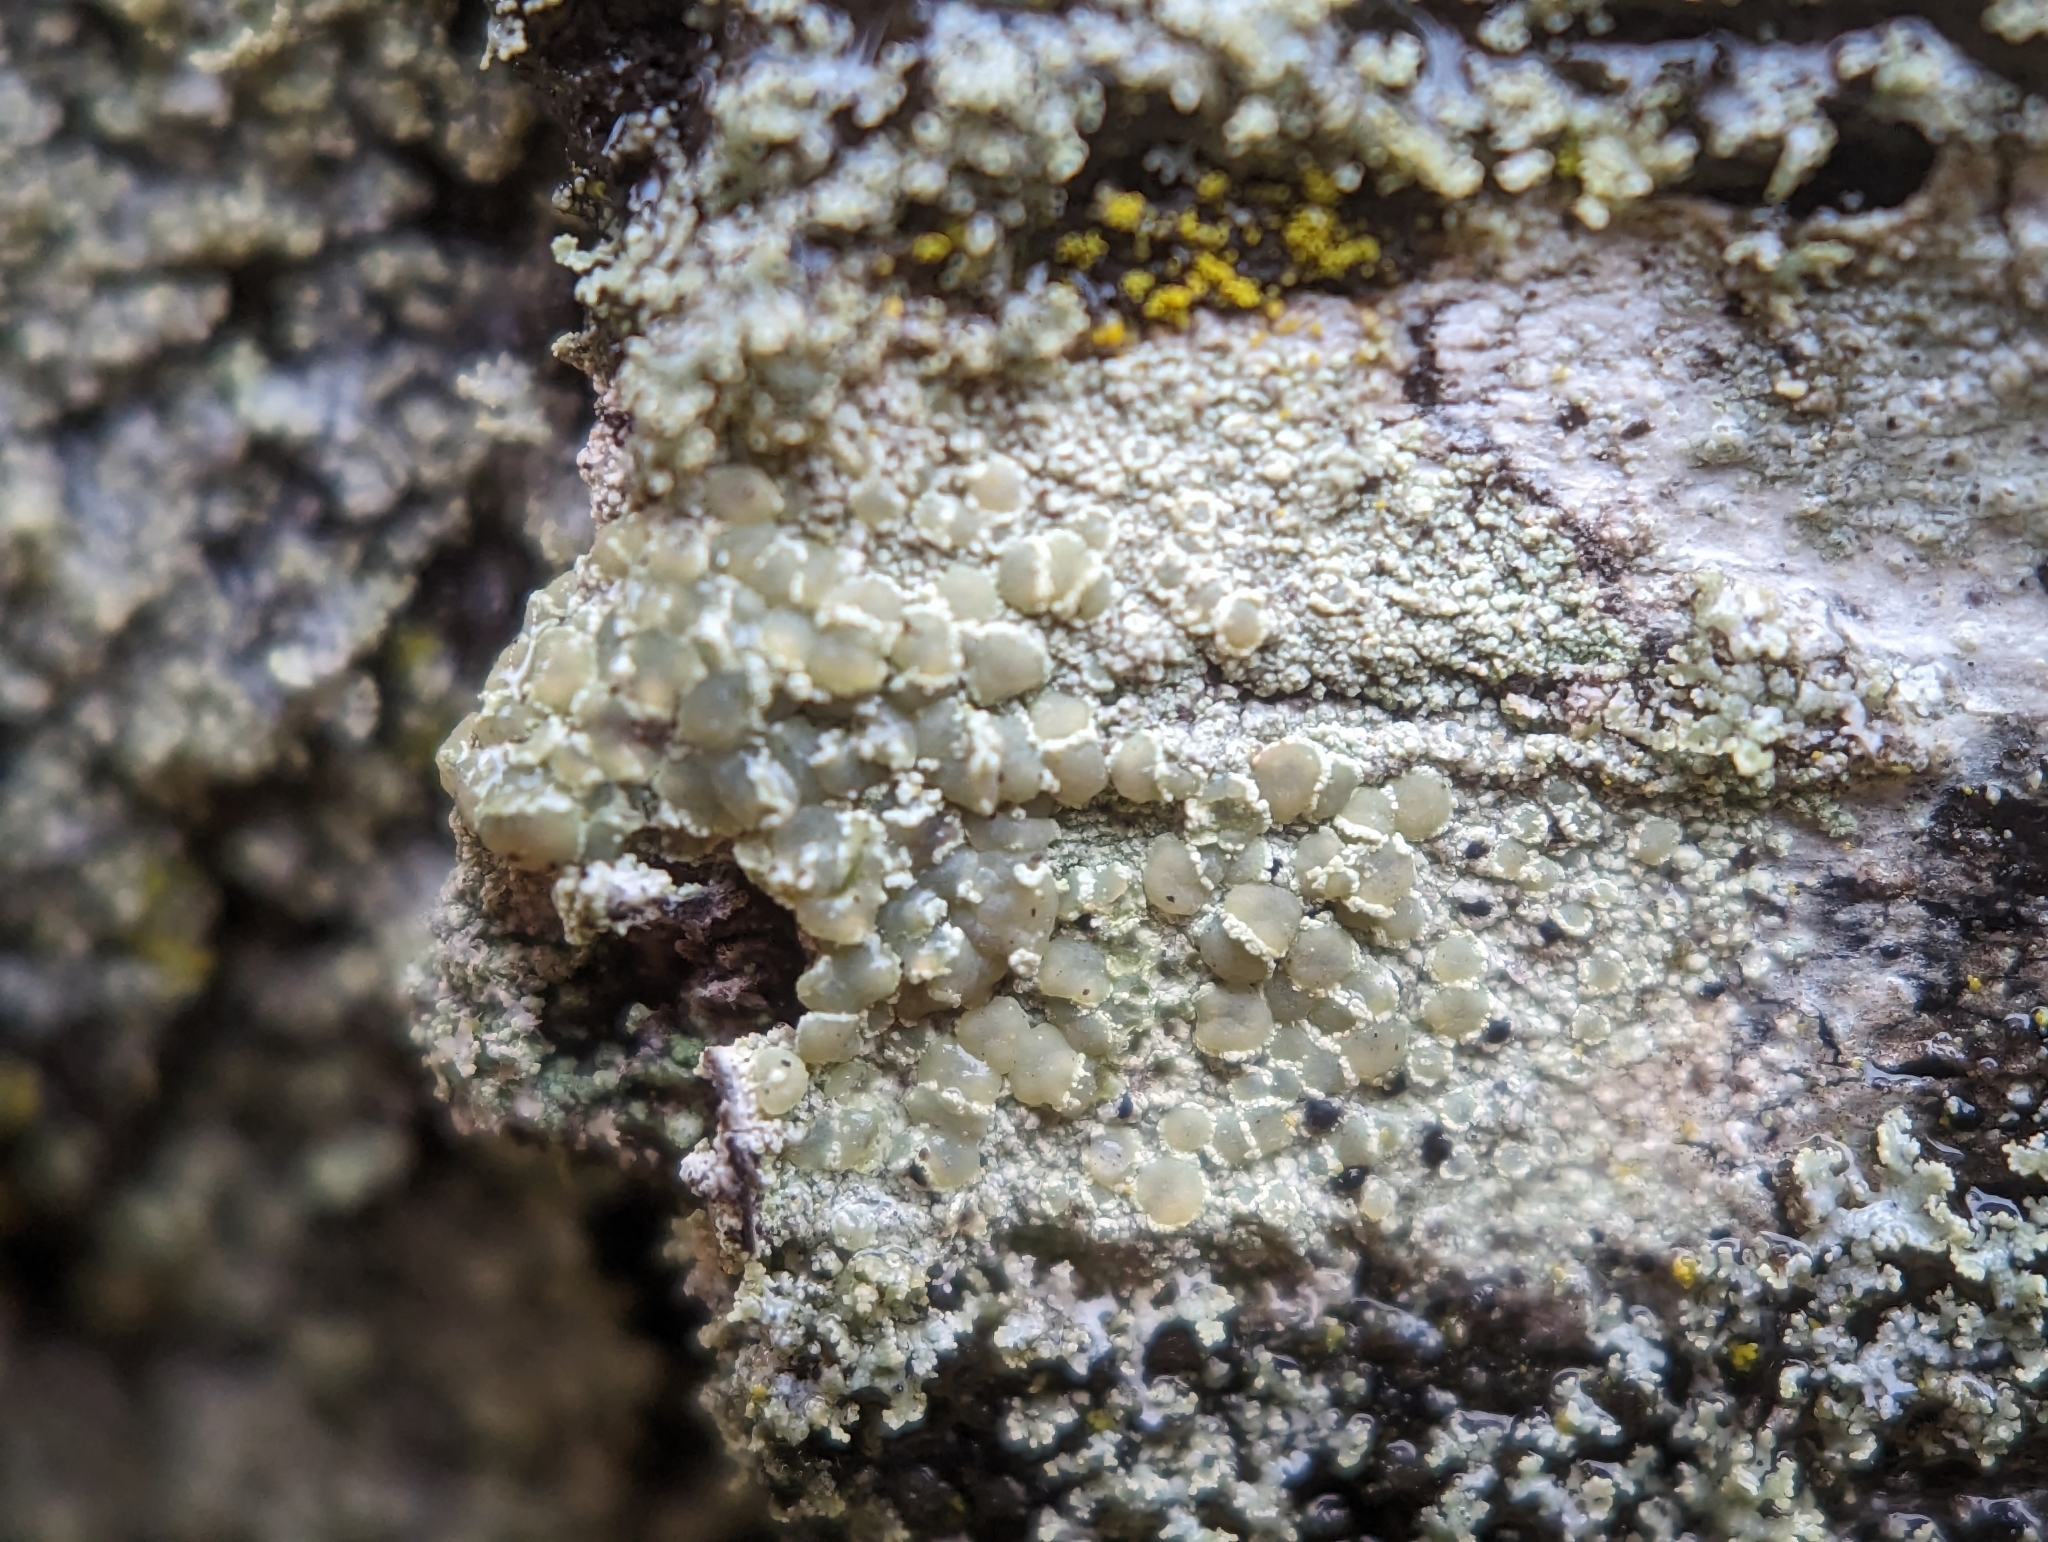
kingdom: Fungi
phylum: Ascomycota
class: Lecanoromycetes
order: Lecanorales
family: Lecanoraceae
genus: Lecanora
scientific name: Lecanora strobilina
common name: Mealy rim-lichen
